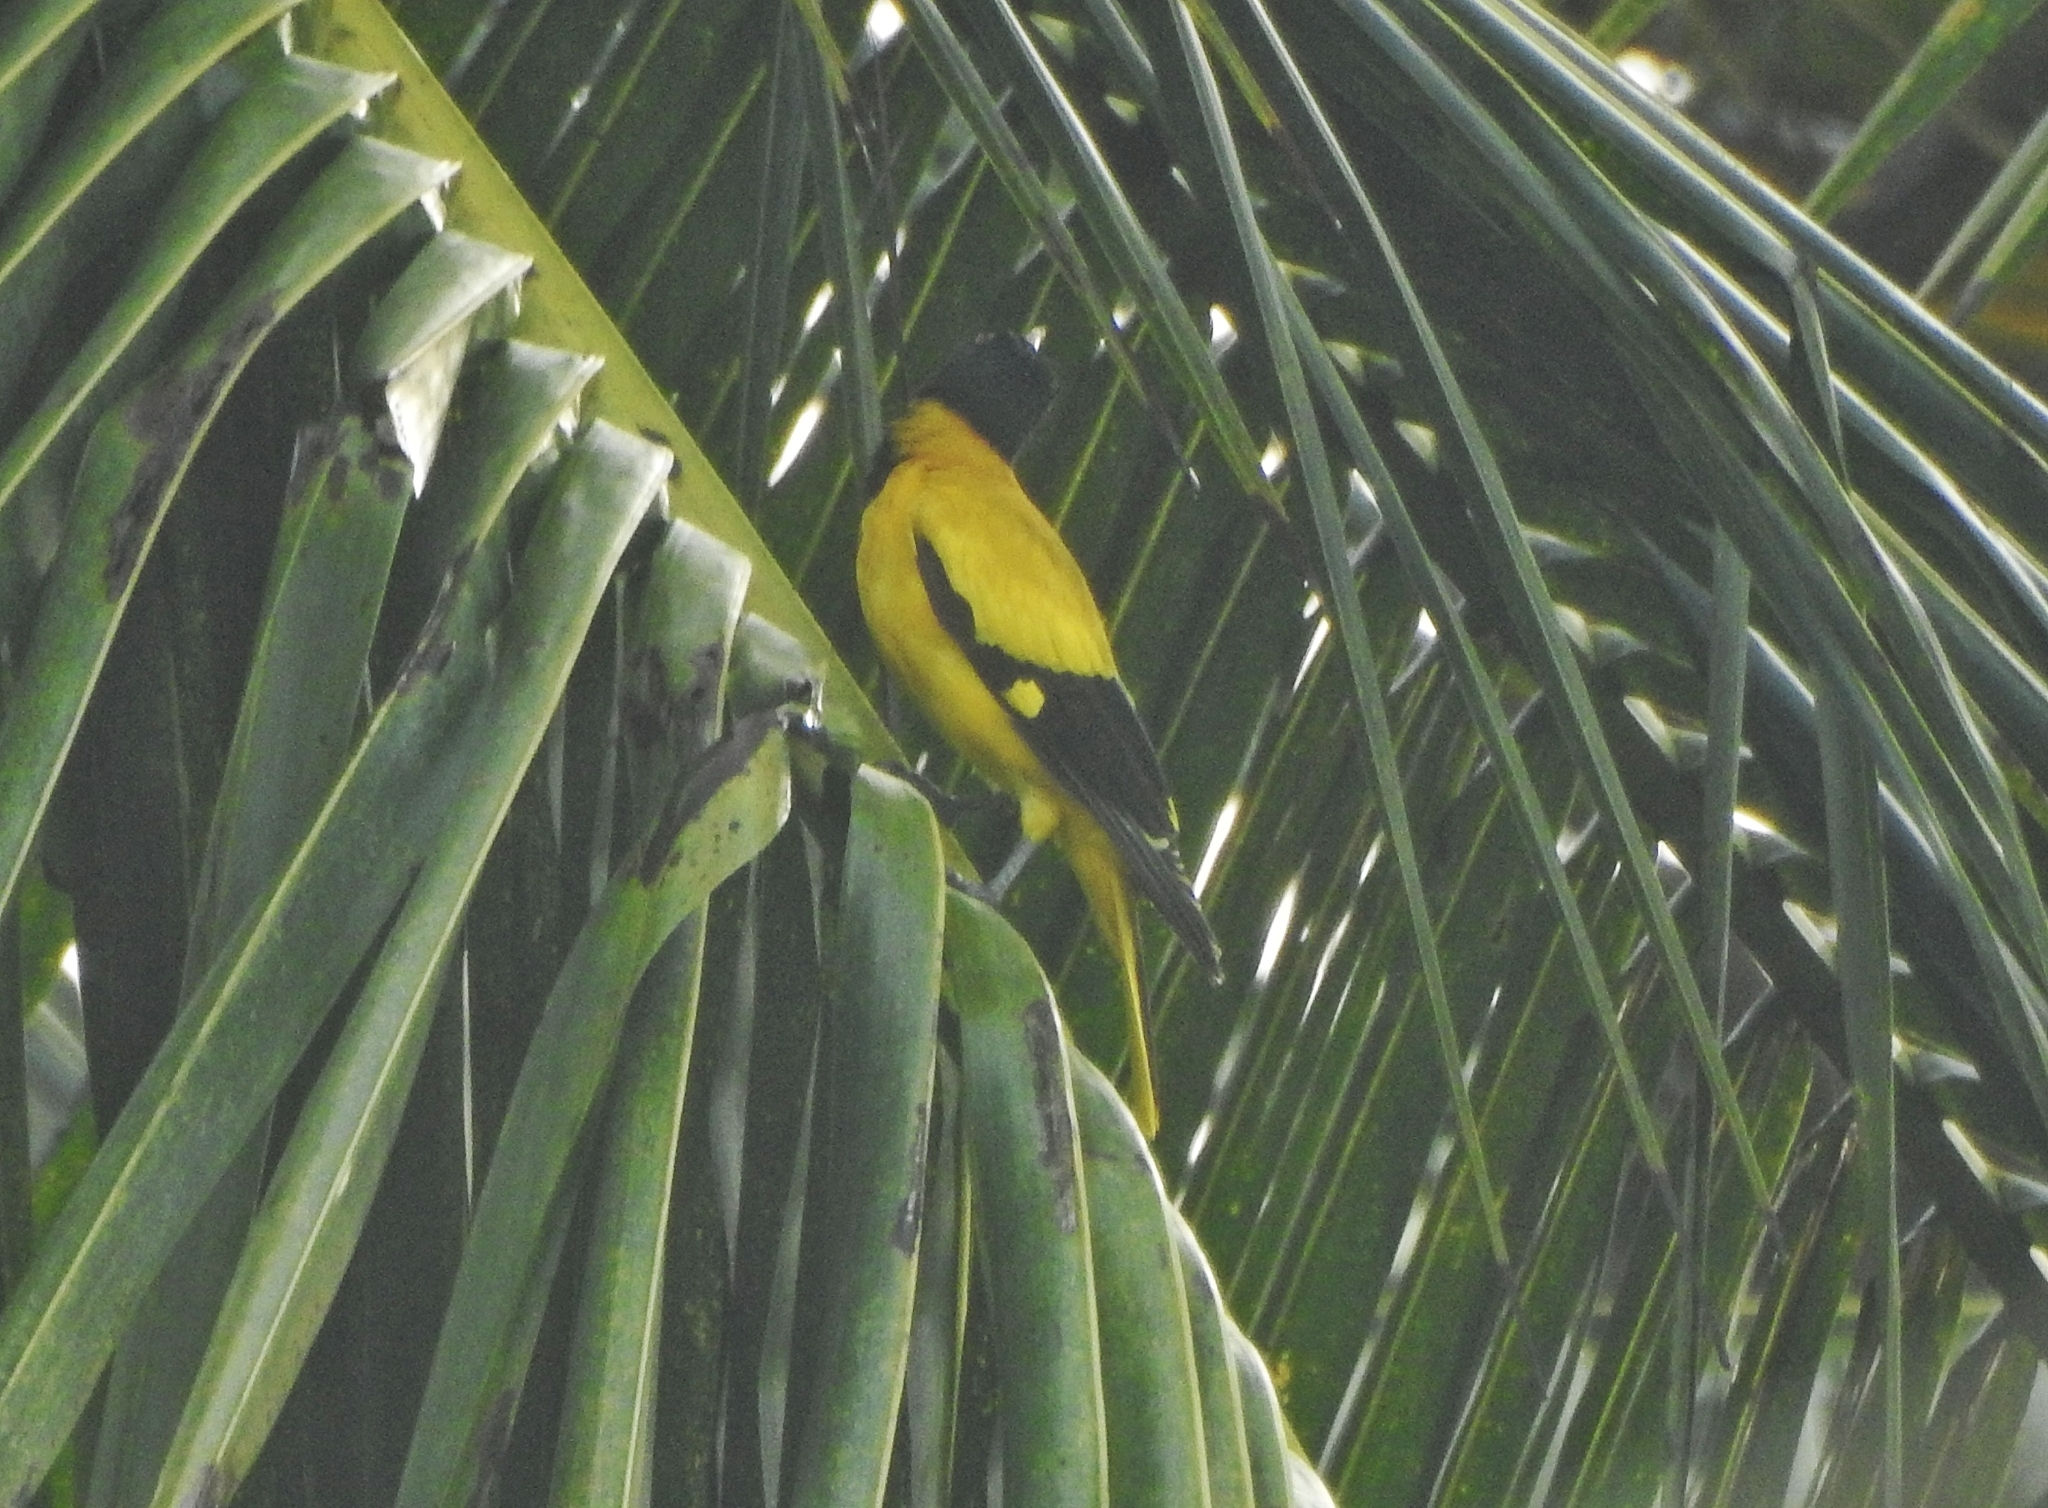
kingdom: Animalia
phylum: Chordata
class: Aves
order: Passeriformes
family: Oriolidae
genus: Oriolus
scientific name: Oriolus xanthornus
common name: Black-hooded oriole
